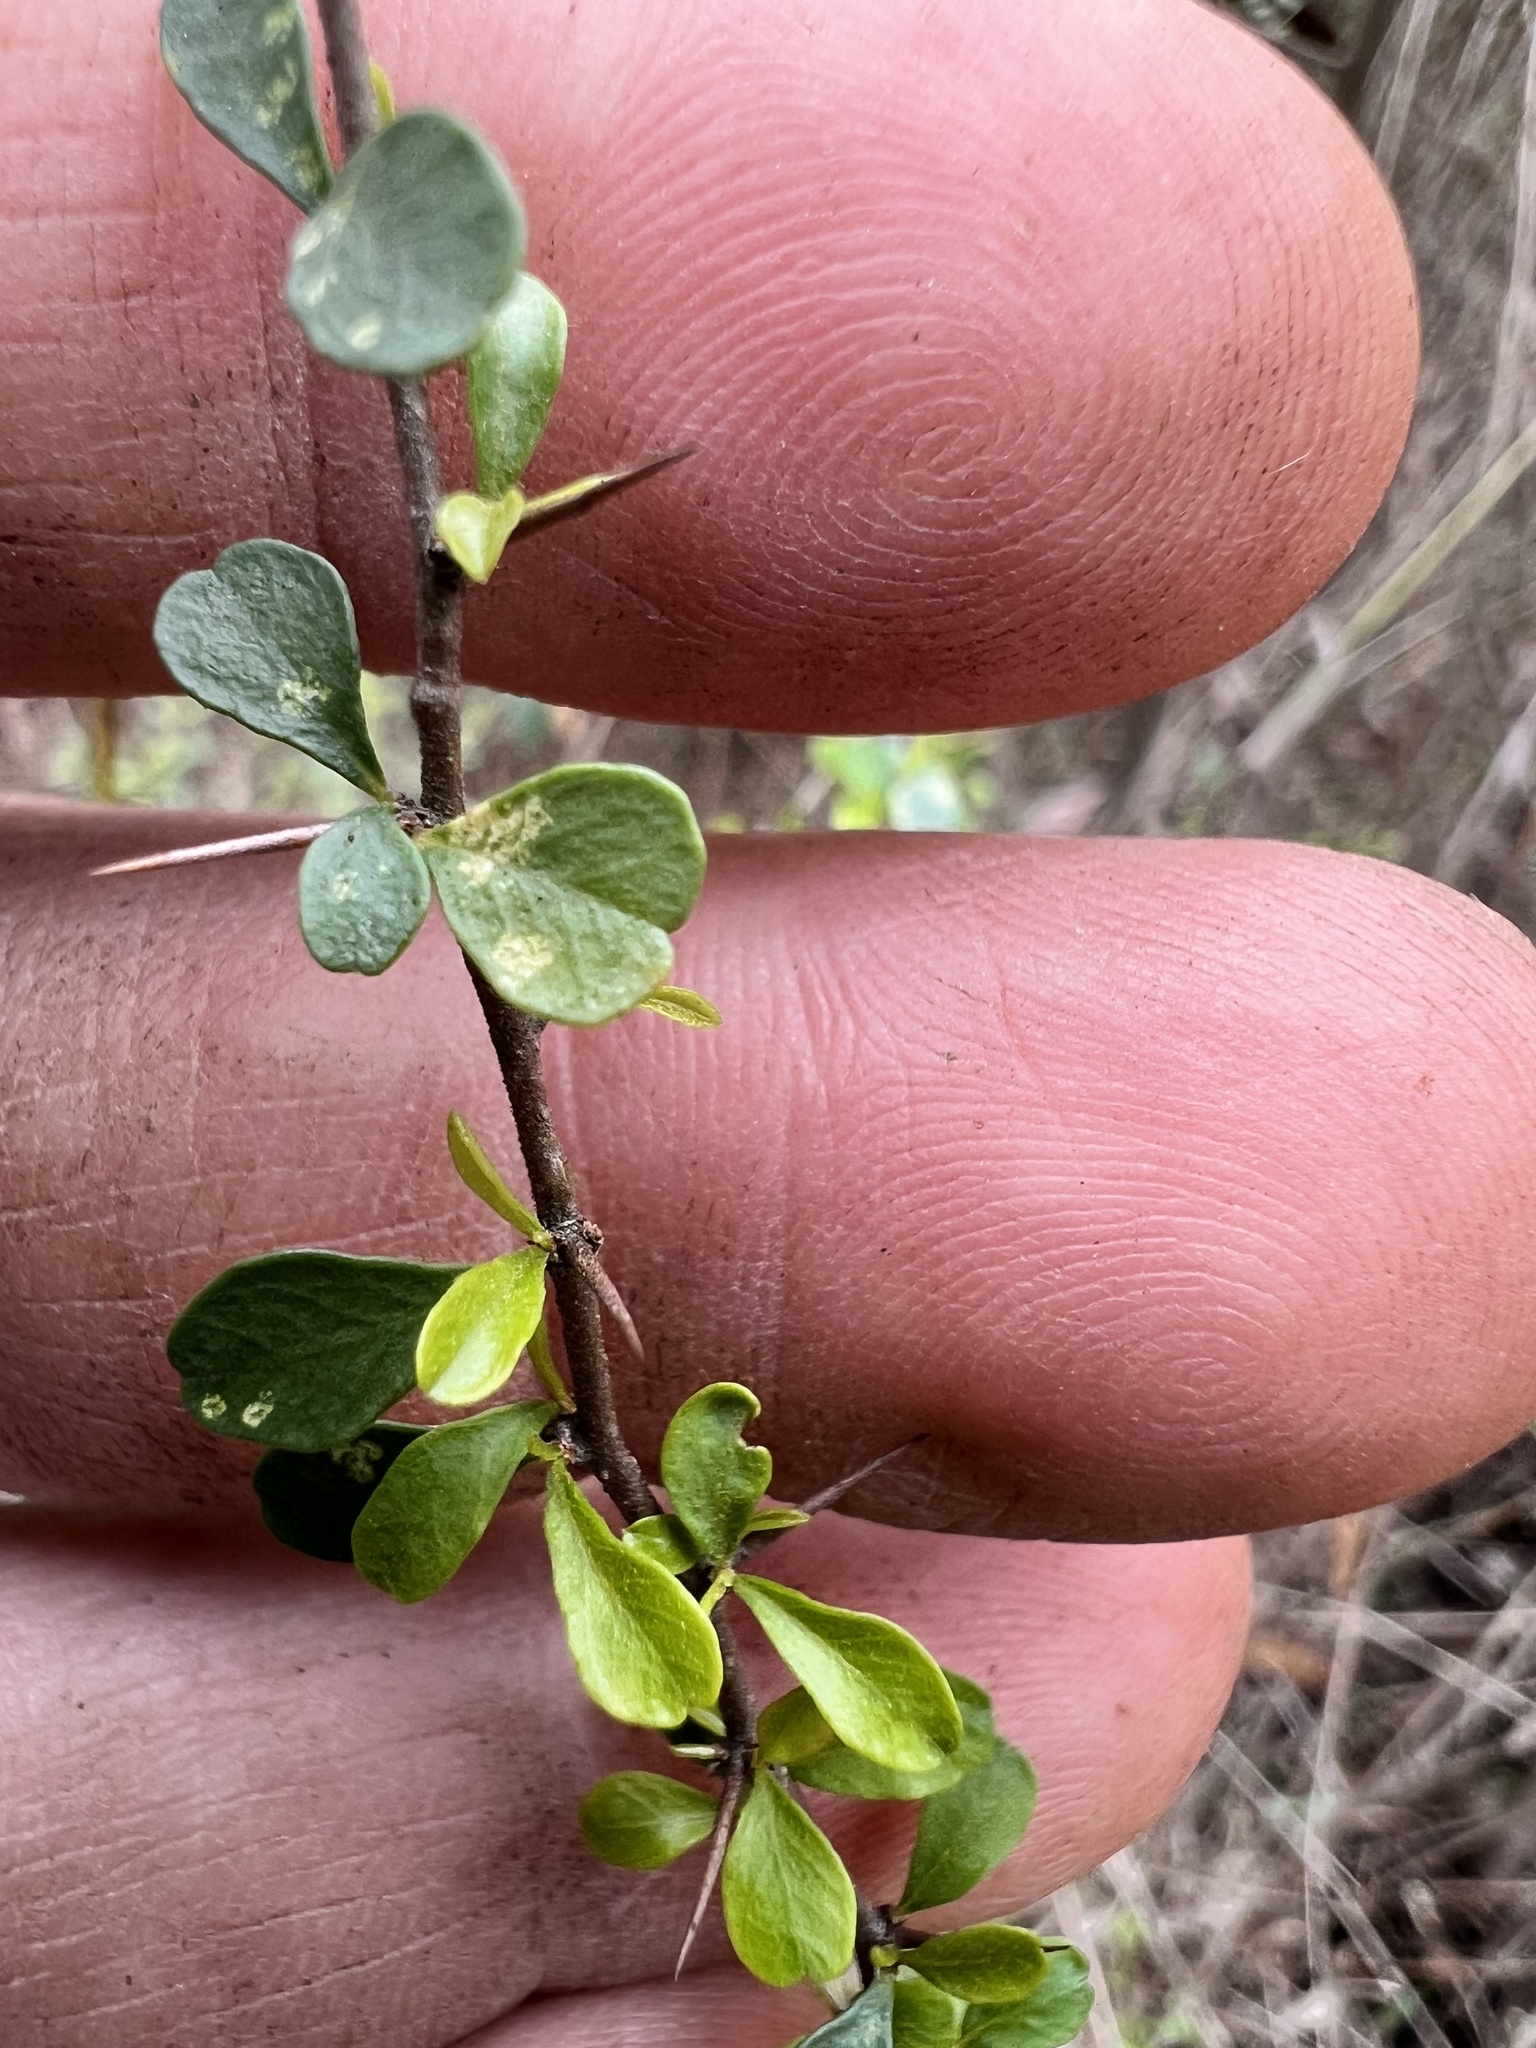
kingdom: Plantae
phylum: Tracheophyta
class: Magnoliopsida
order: Apiales
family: Pittosporaceae
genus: Bursaria
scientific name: Bursaria spinosa
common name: Australian blackthorn
